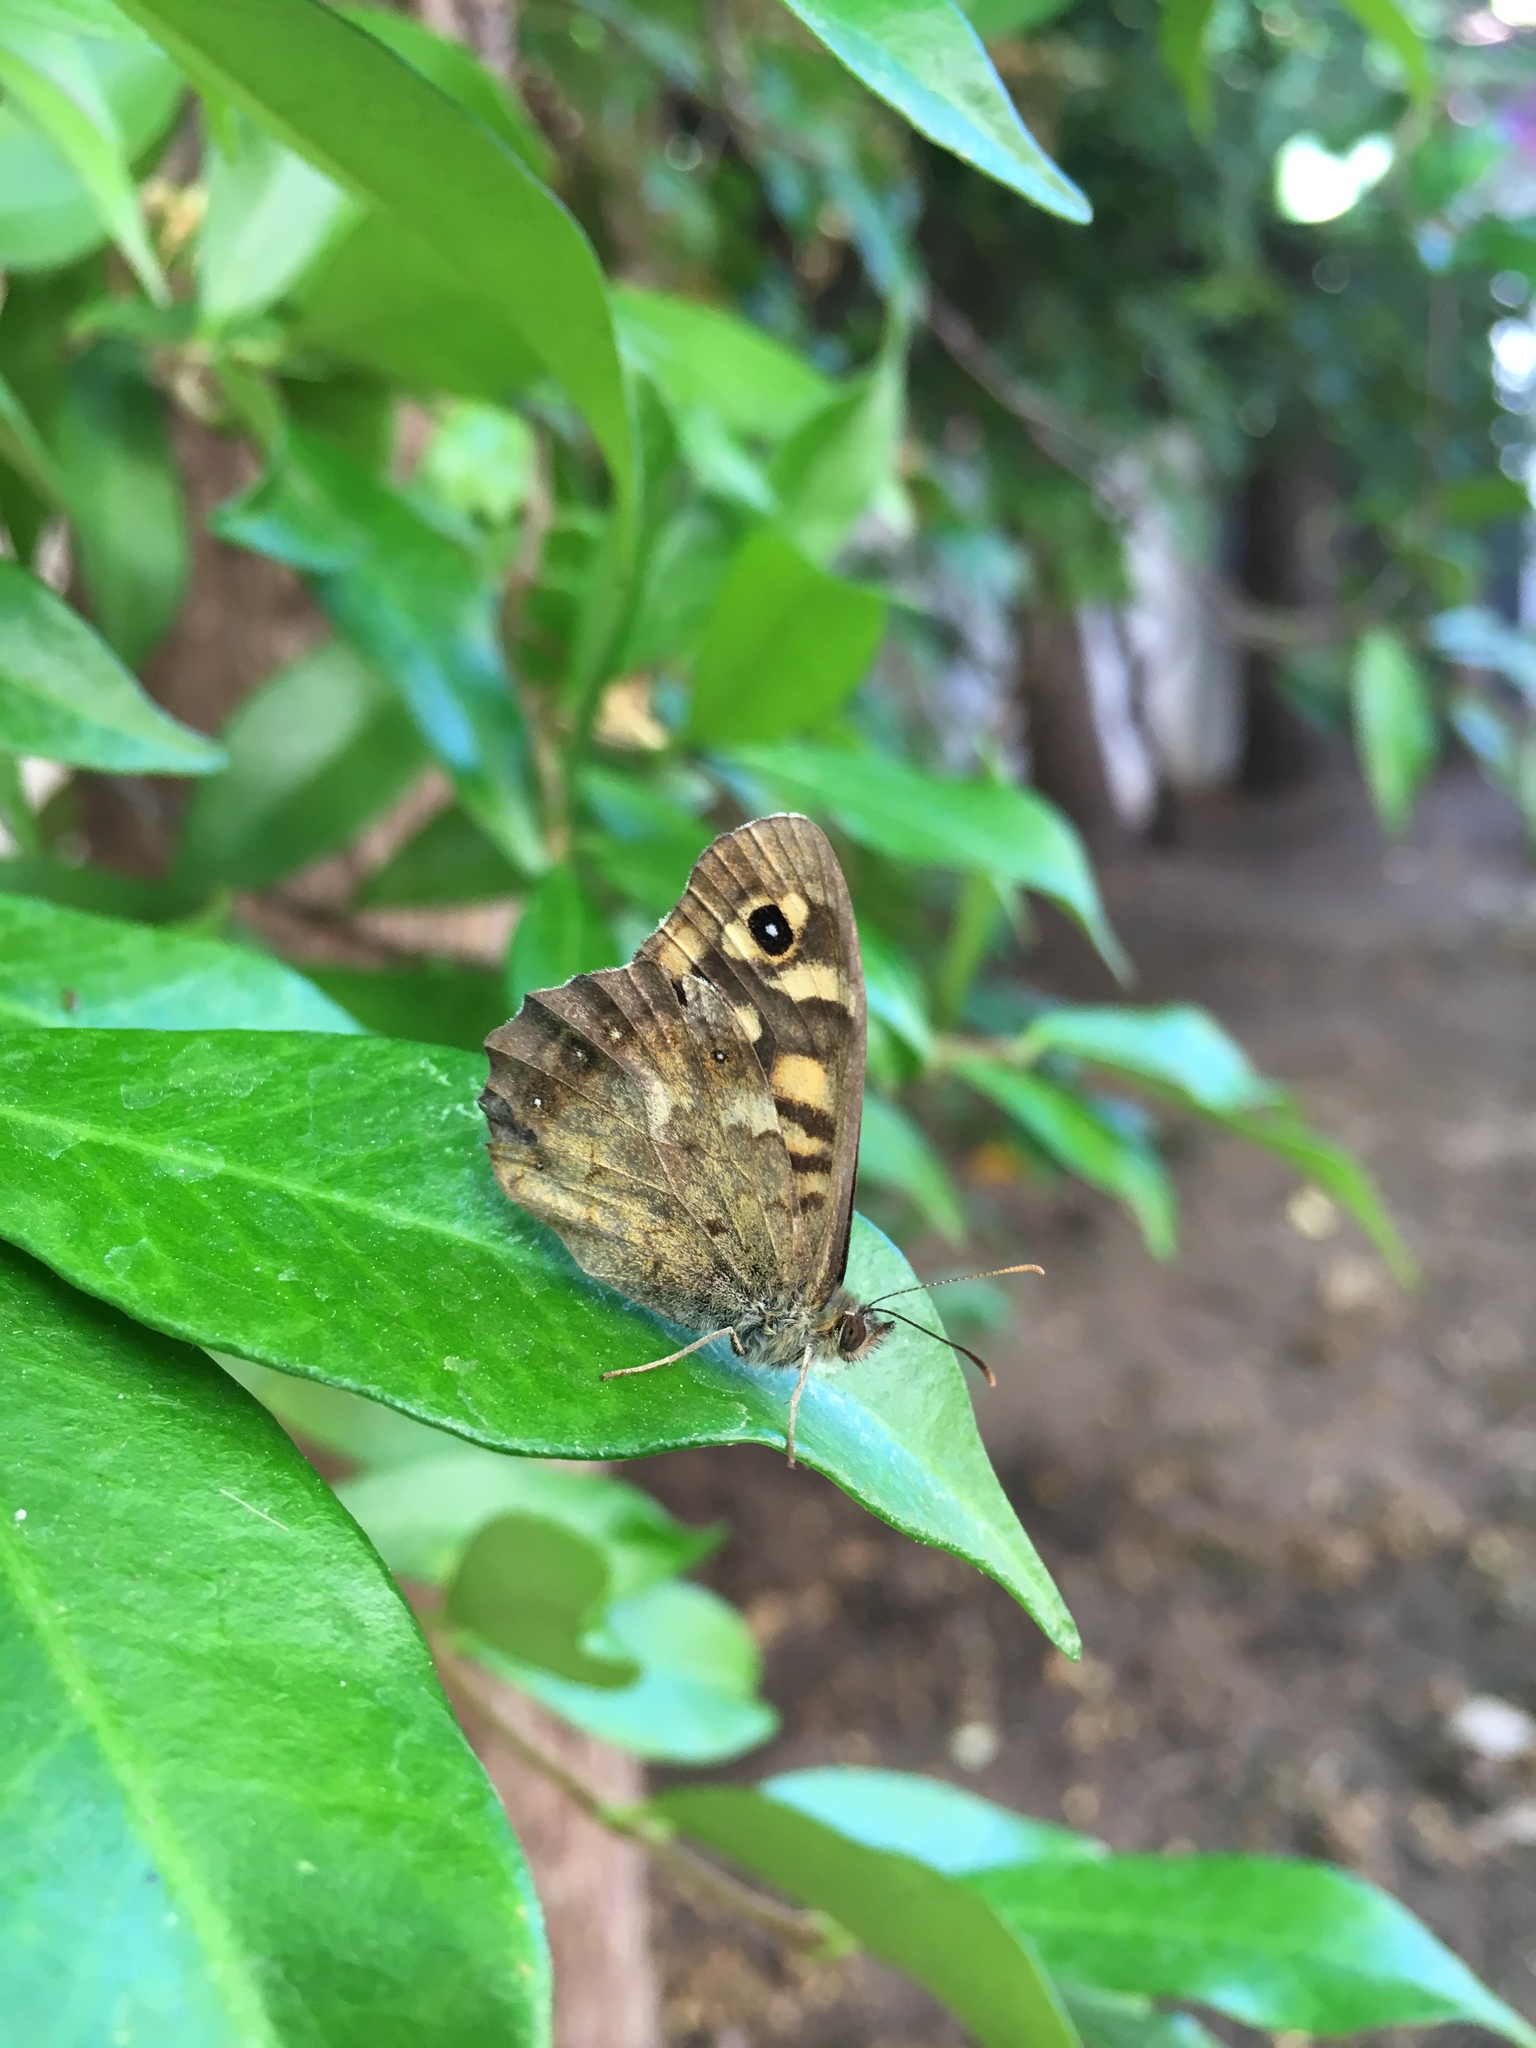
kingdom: Animalia
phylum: Arthropoda
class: Insecta
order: Lepidoptera
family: Nymphalidae
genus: Pararge
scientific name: Pararge aegeria
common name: Speckled wood
